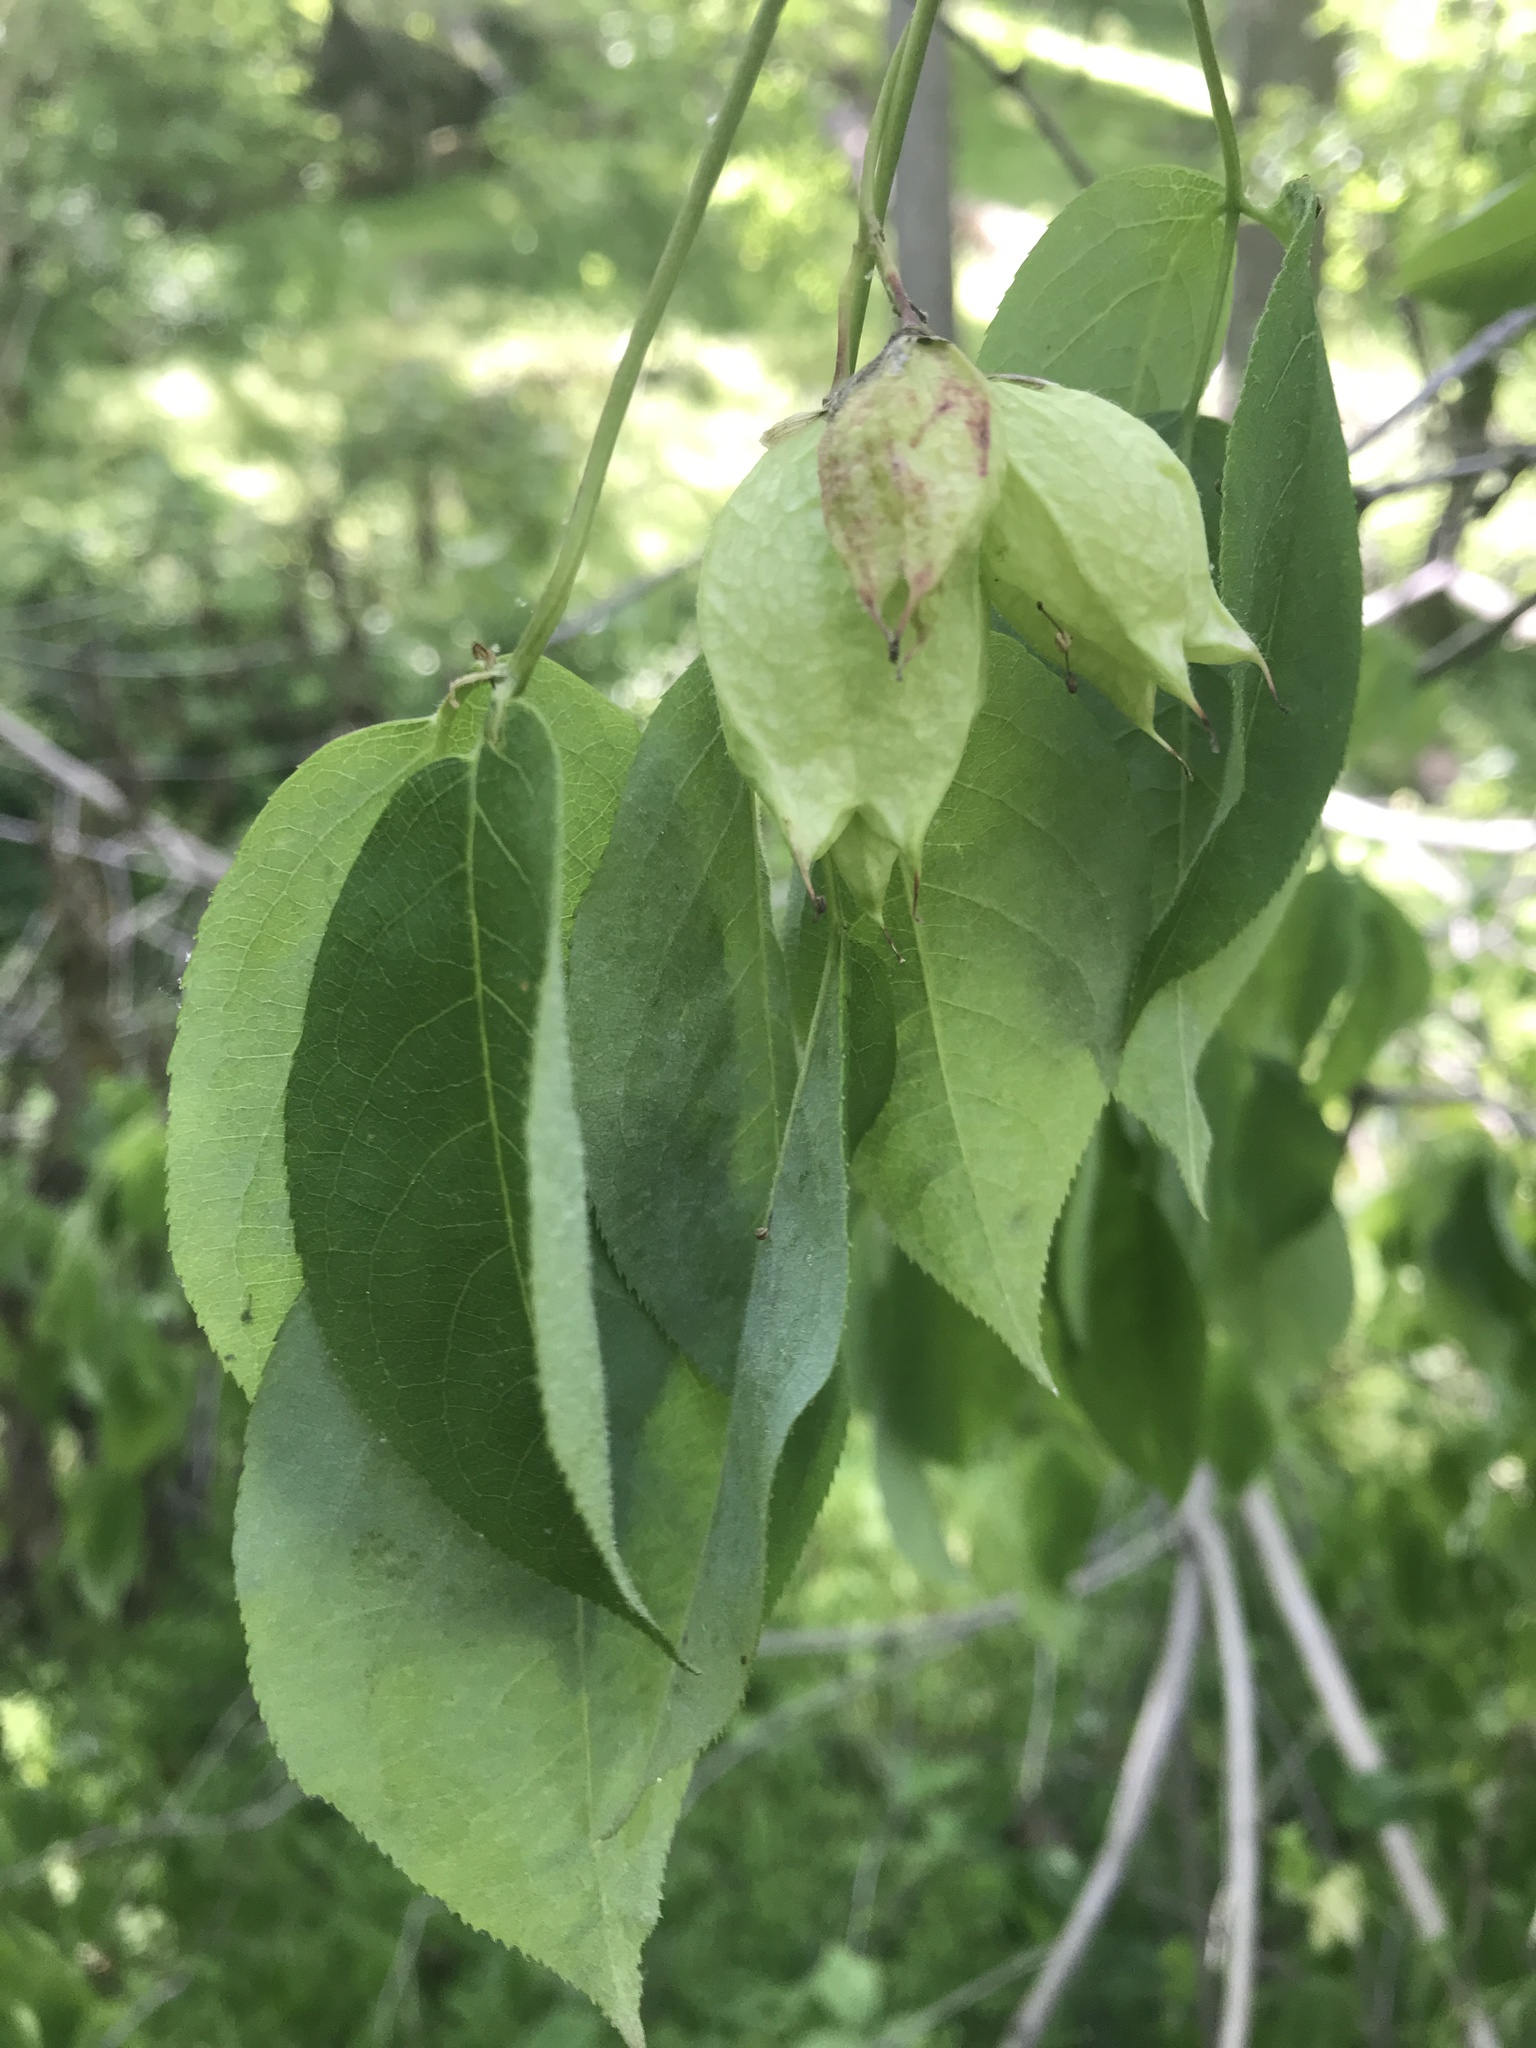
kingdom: Plantae
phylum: Tracheophyta
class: Magnoliopsida
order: Crossosomatales
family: Staphyleaceae
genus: Staphylea
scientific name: Staphylea trifolia
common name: American bladdernut
